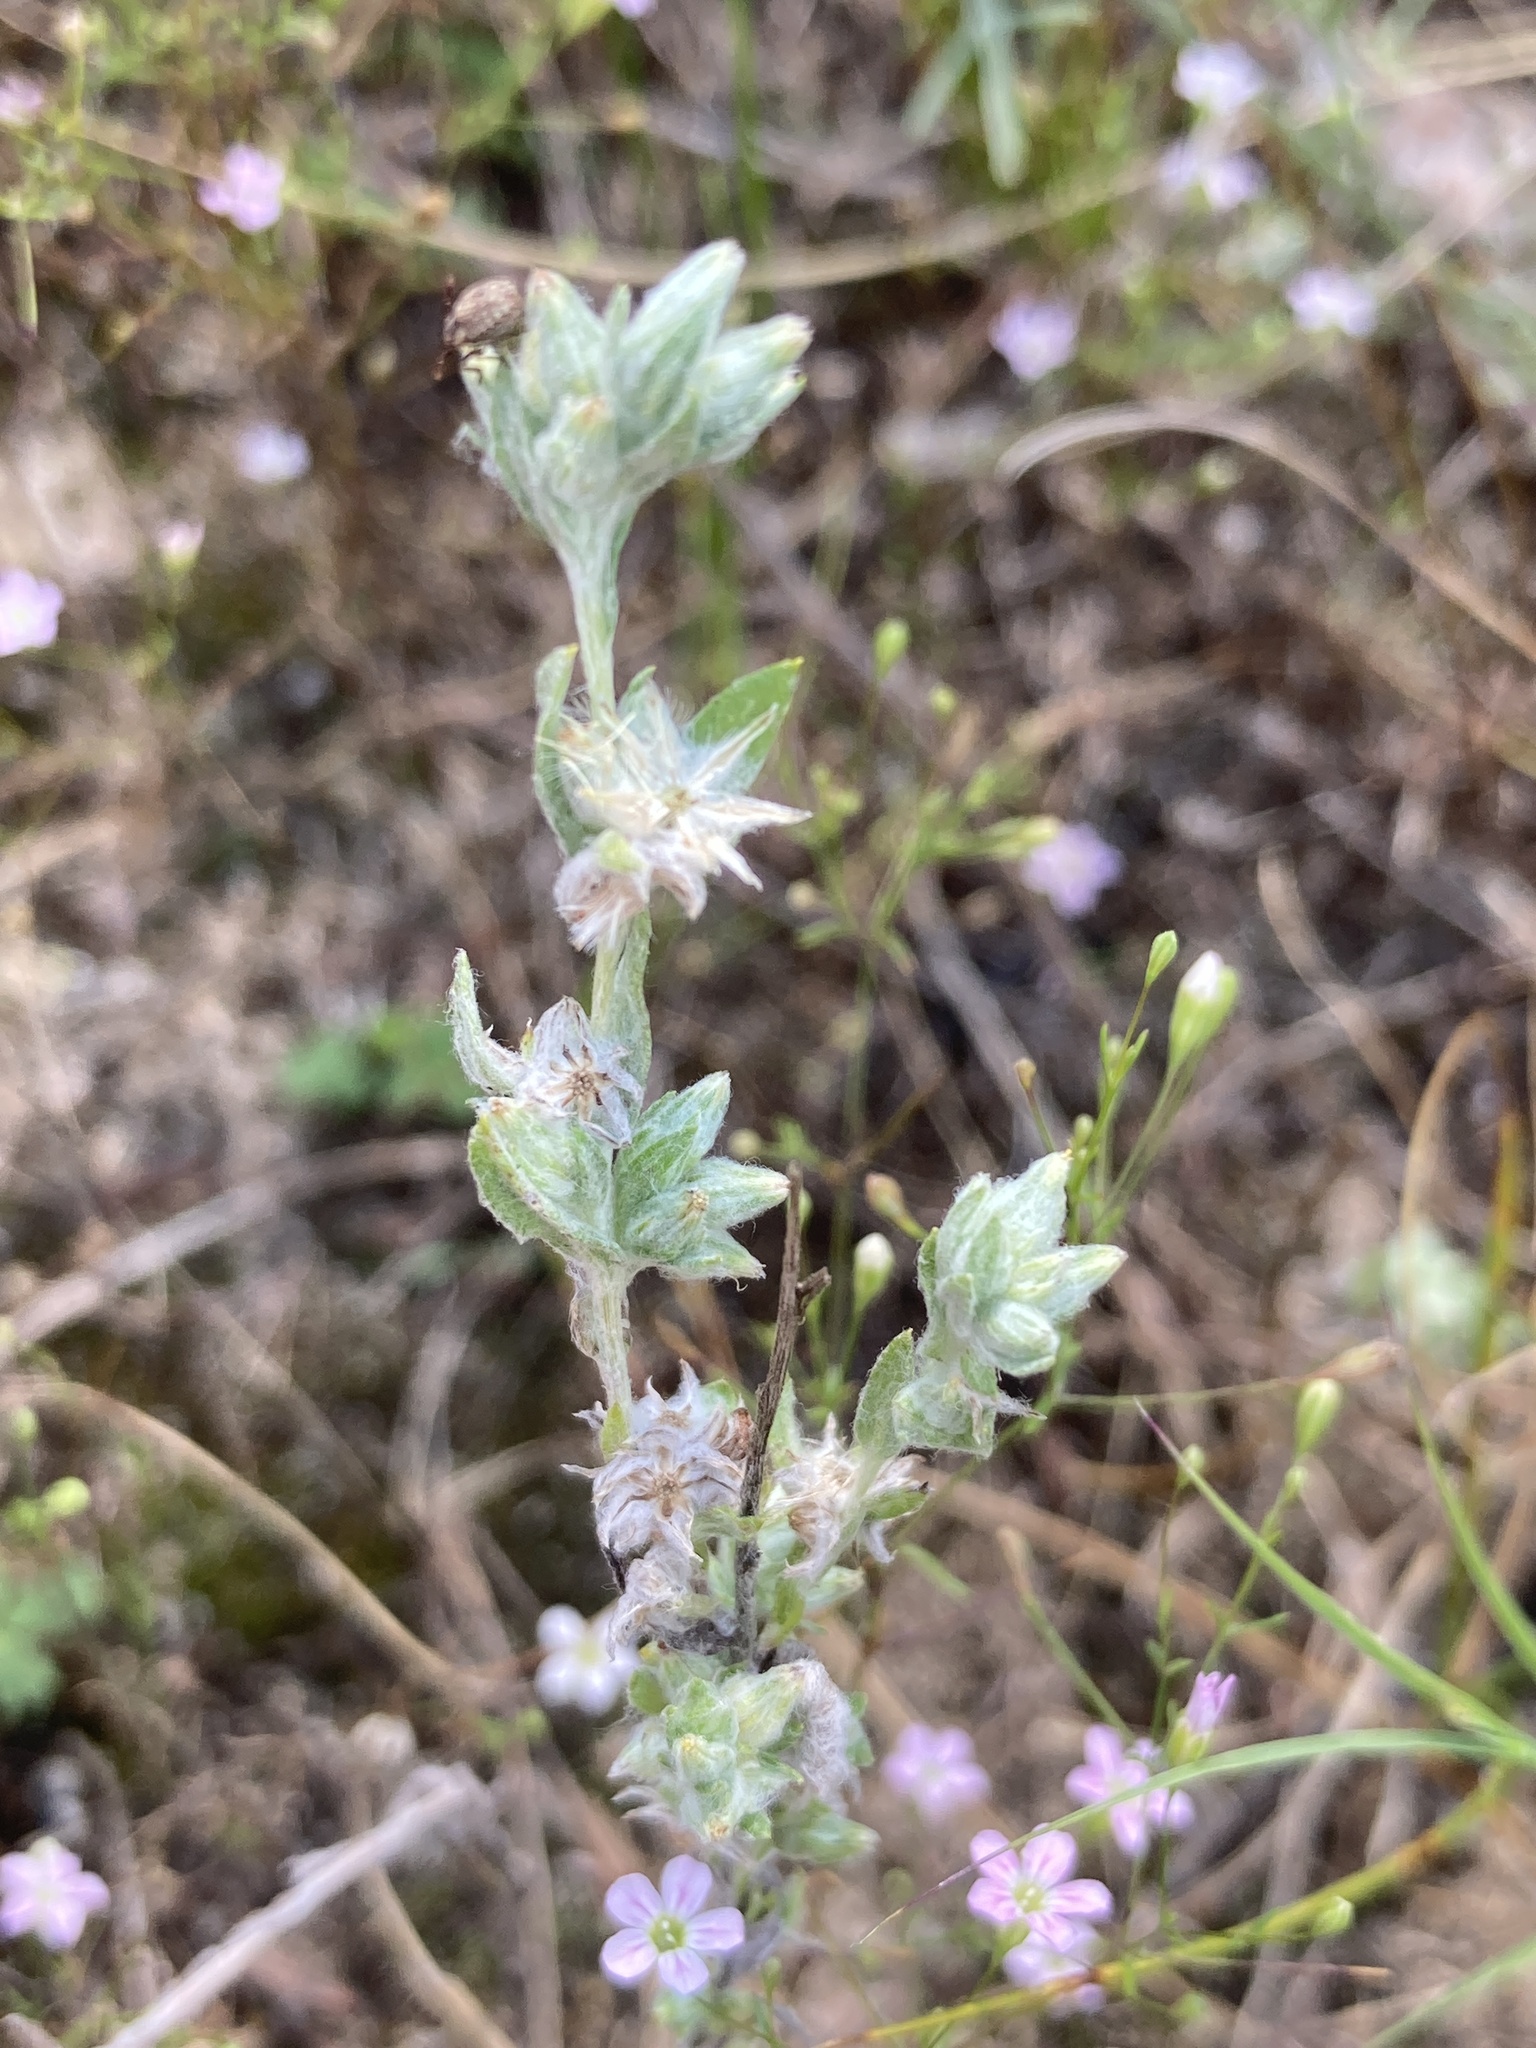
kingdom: Plantae
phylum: Tracheophyta
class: Magnoliopsida
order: Asterales
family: Asteraceae
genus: Filago
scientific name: Filago arvensis
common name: Field cudweed
